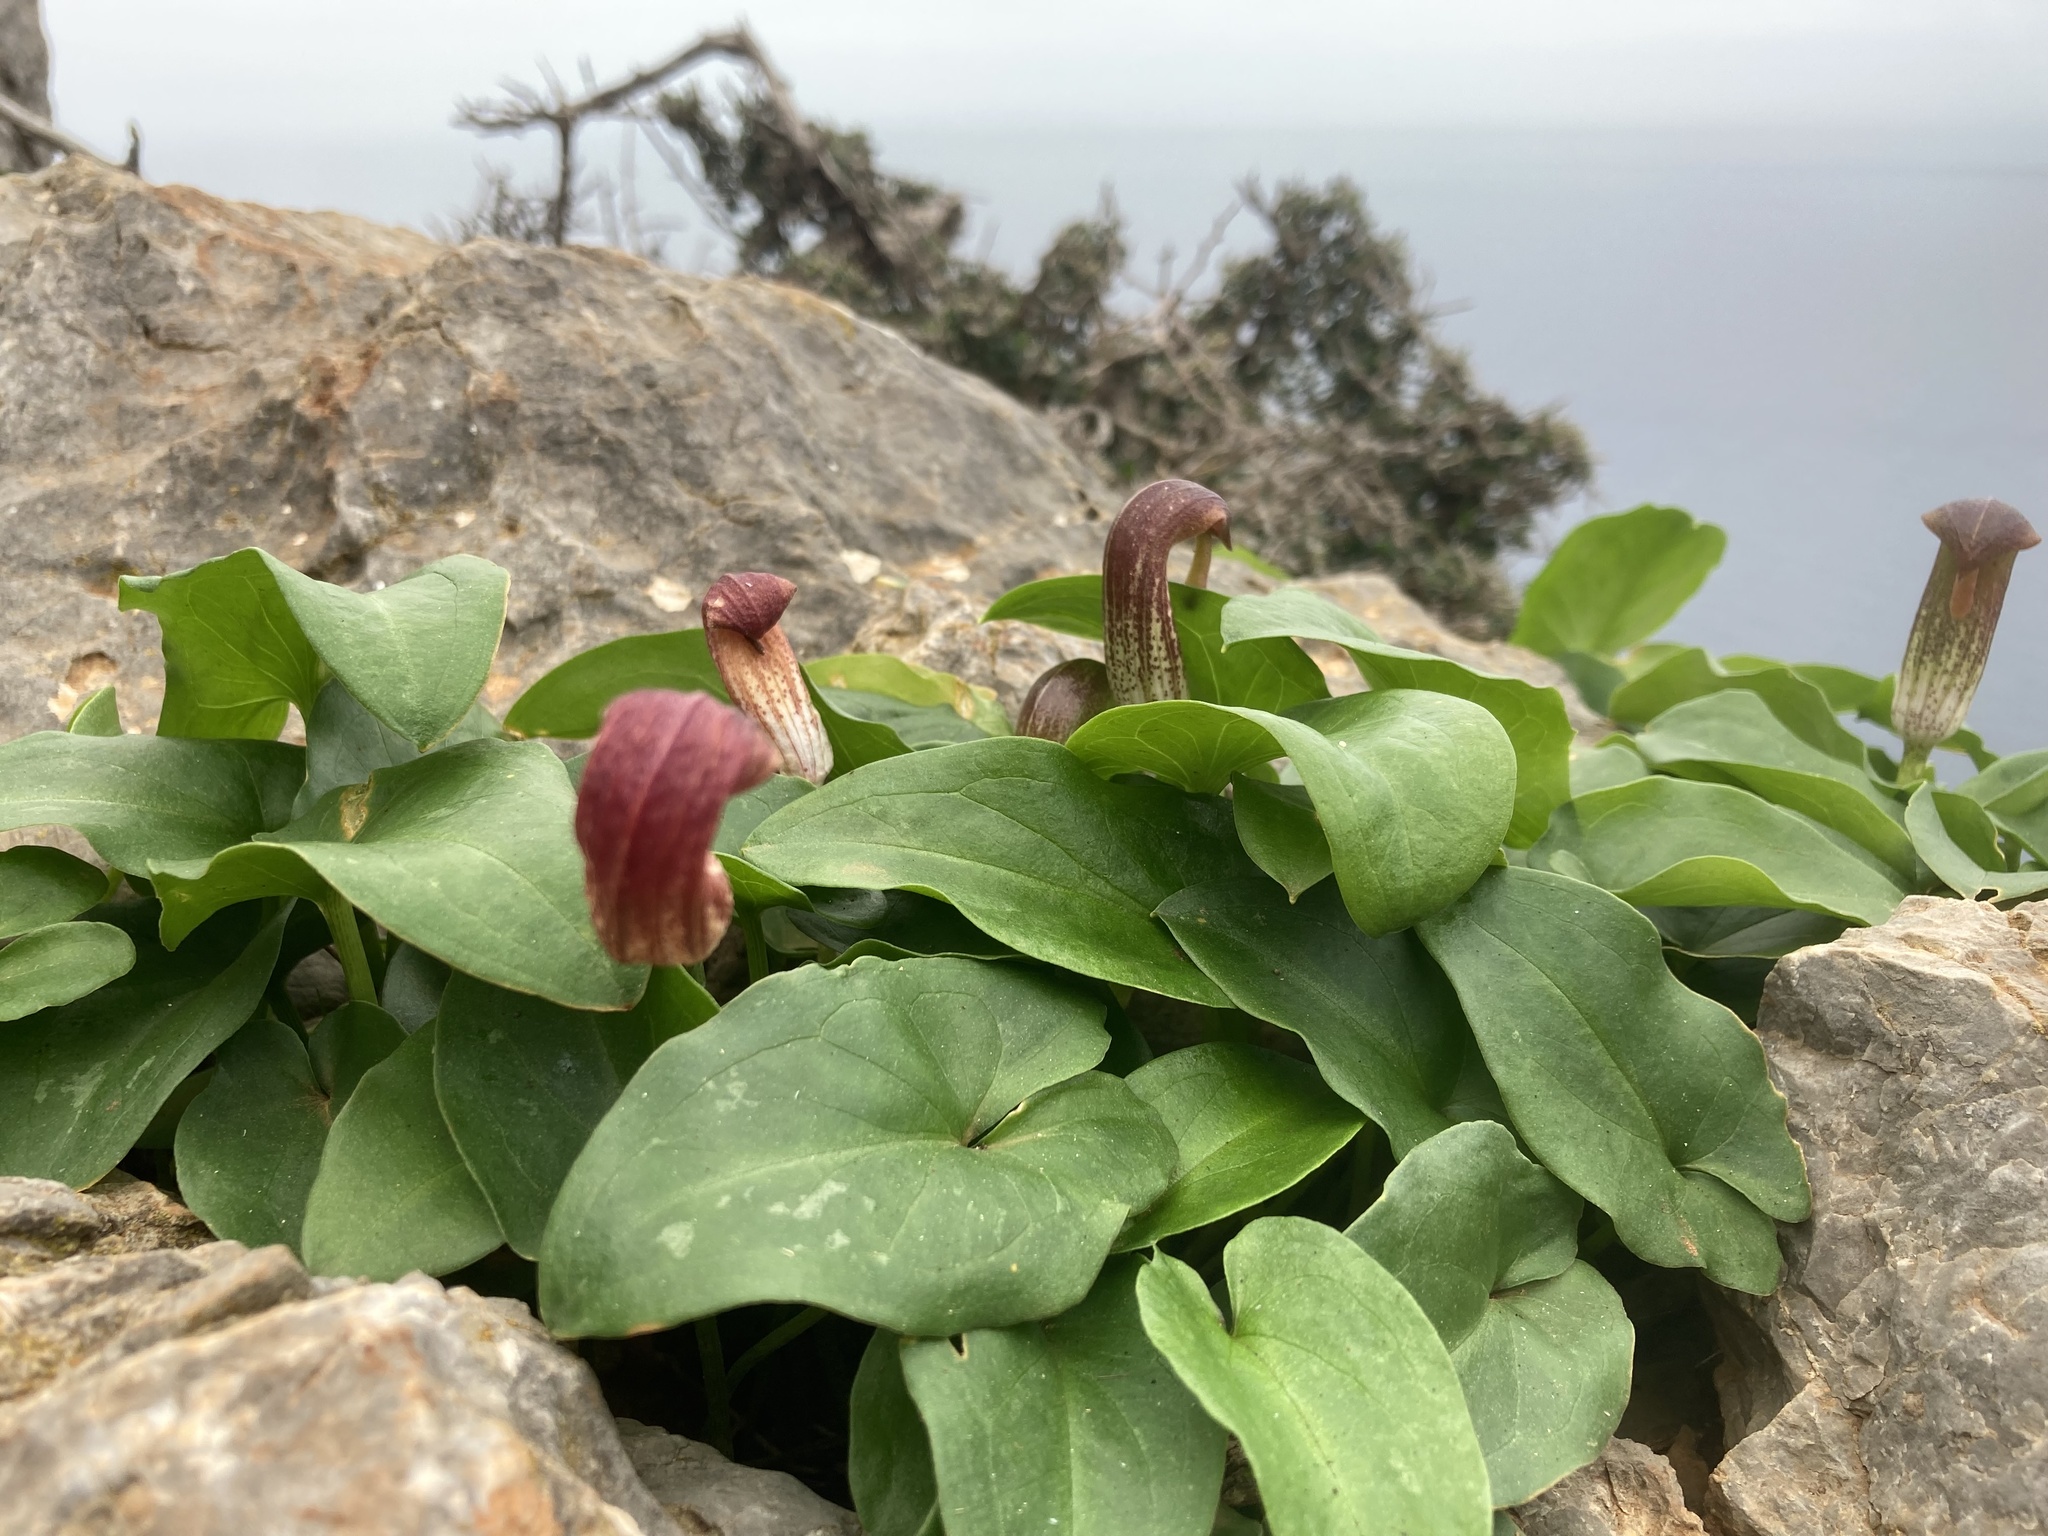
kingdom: Plantae
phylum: Tracheophyta
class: Liliopsida
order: Alismatales
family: Araceae
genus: Arisarum
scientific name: Arisarum vulgare
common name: Common arisarum
